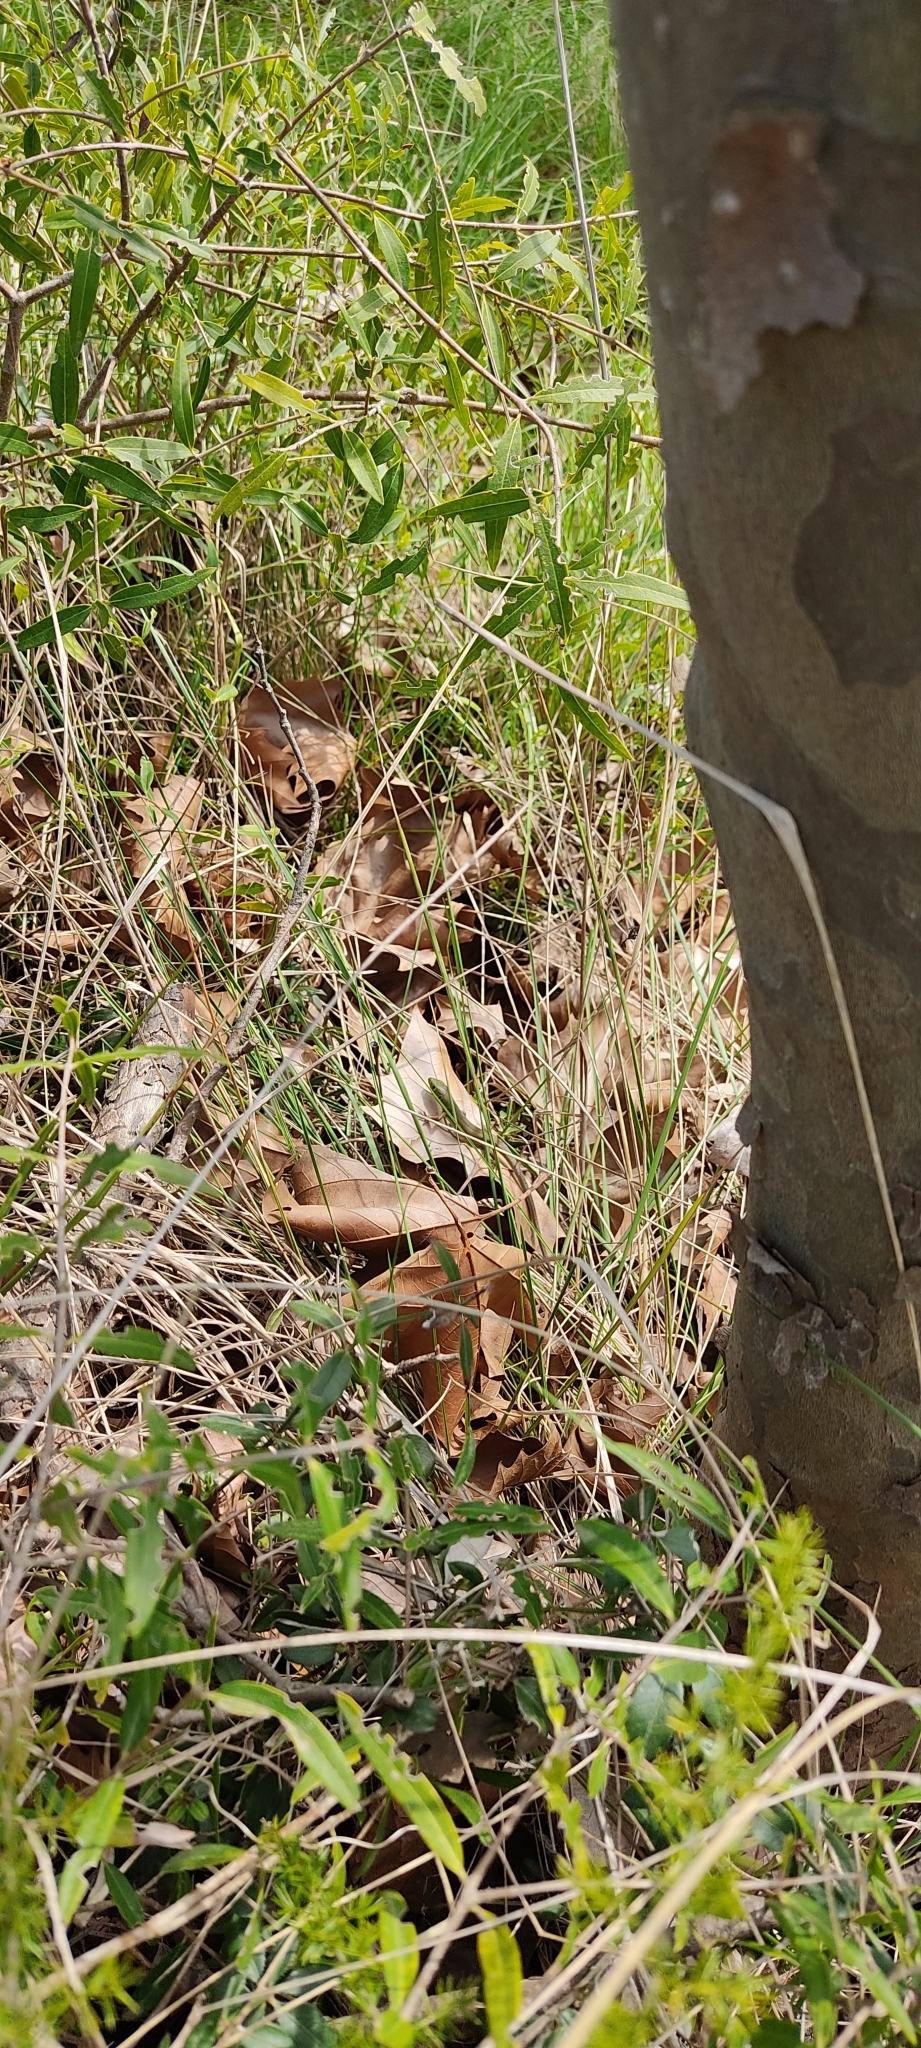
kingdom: Animalia
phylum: Chordata
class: Squamata
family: Lacertidae
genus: Lacerta
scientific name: Lacerta bilineata
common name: Western green lizard
